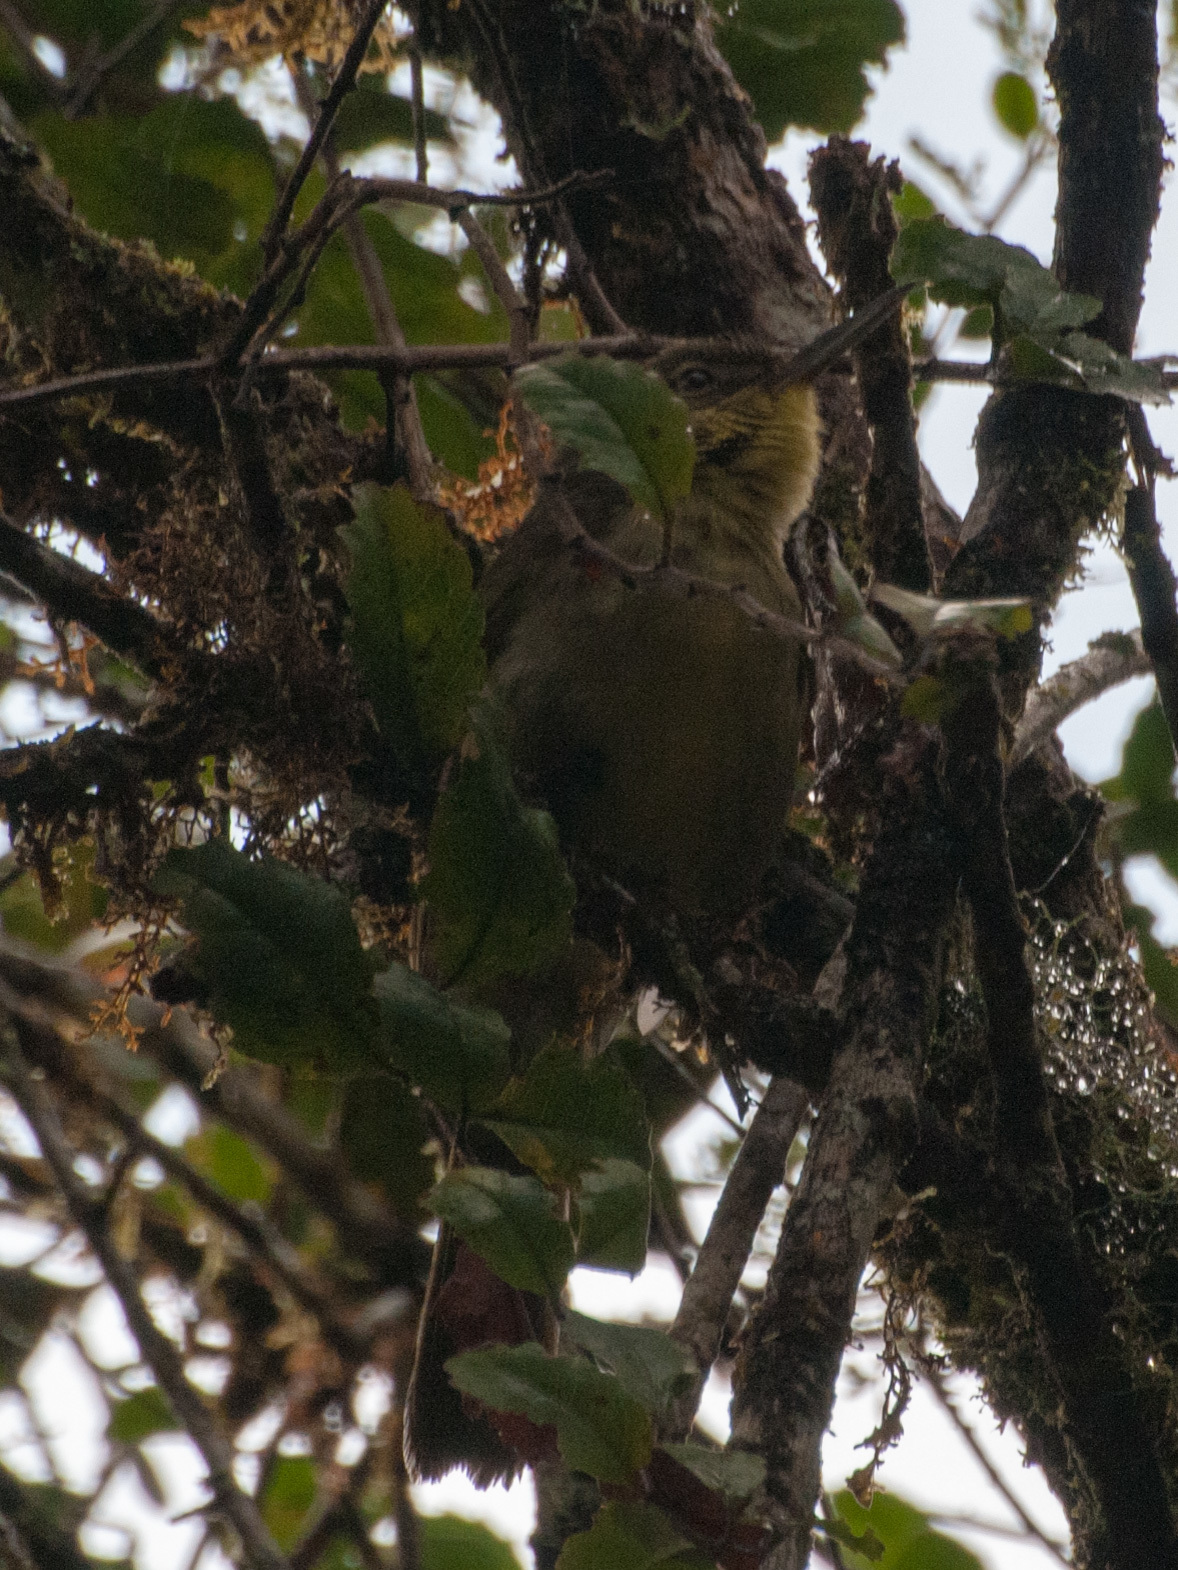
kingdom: Animalia
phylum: Chordata
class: Aves
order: Passeriformes
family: Bernieridae
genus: Bernieria
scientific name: Bernieria madagascariensis
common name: Long-billed bernieria
